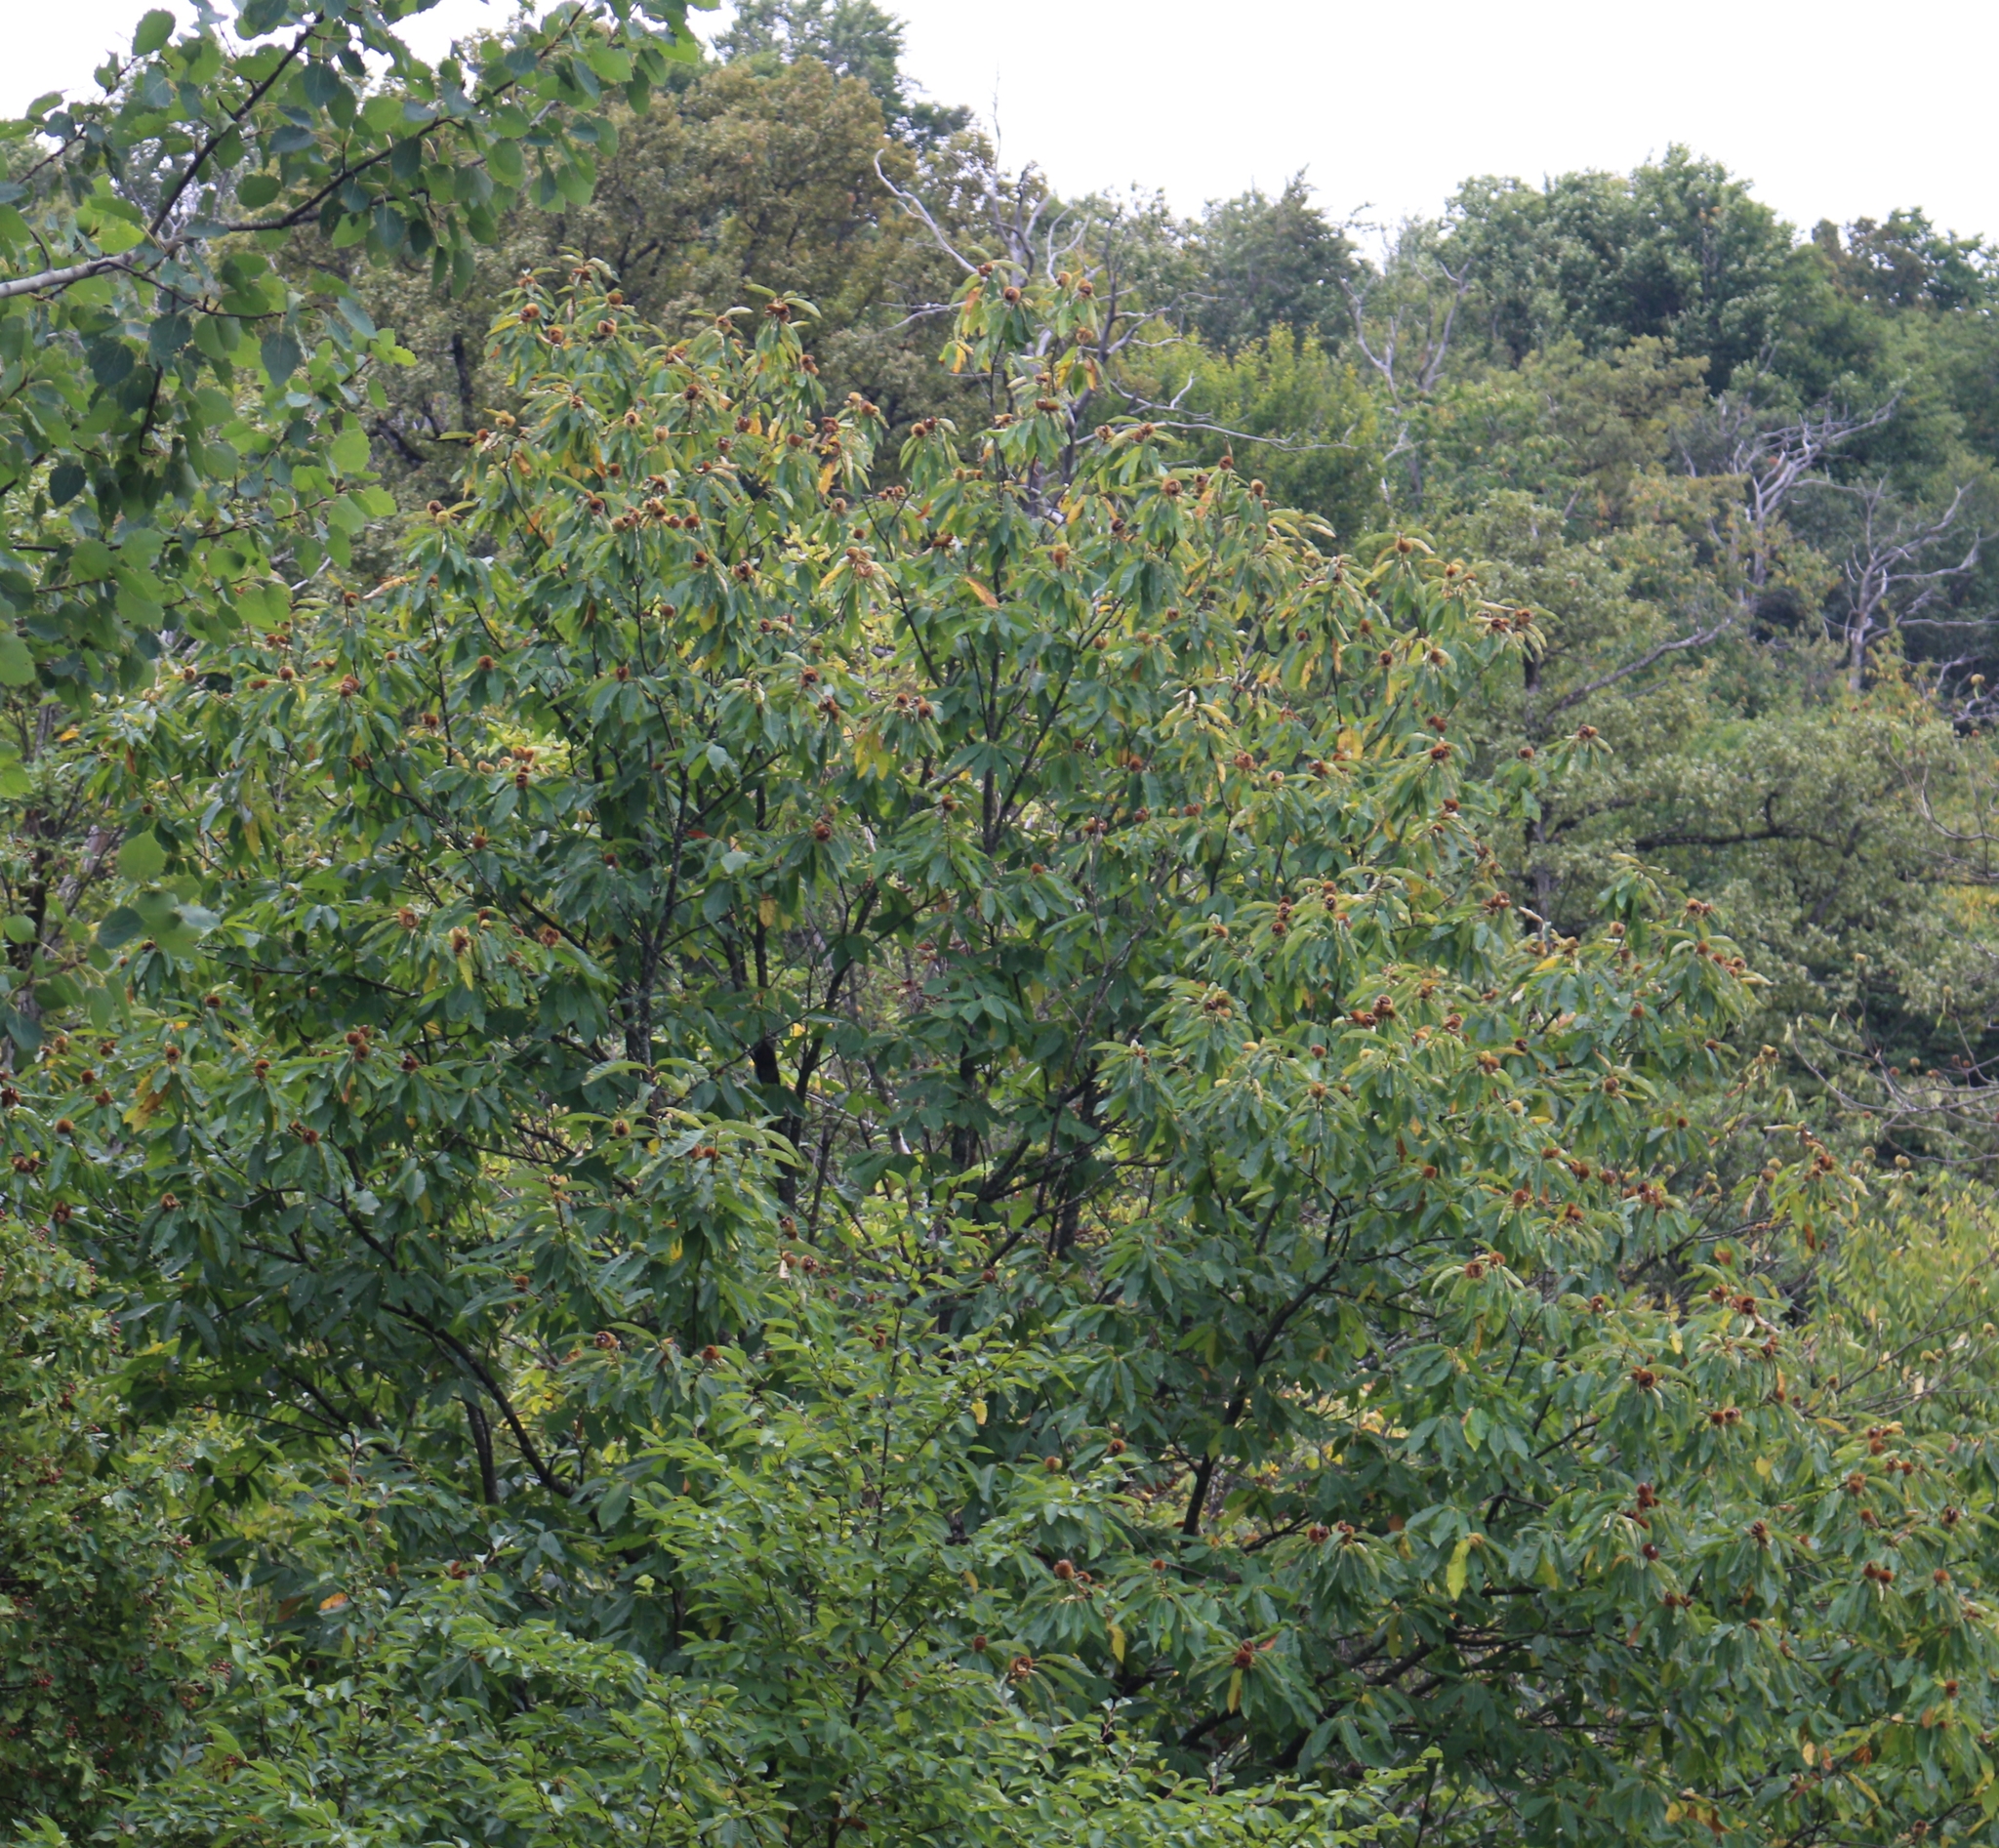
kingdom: Plantae
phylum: Tracheophyta
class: Magnoliopsida
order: Fagales
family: Fagaceae
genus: Castanea
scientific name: Castanea sativa
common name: Sweet chestnut
